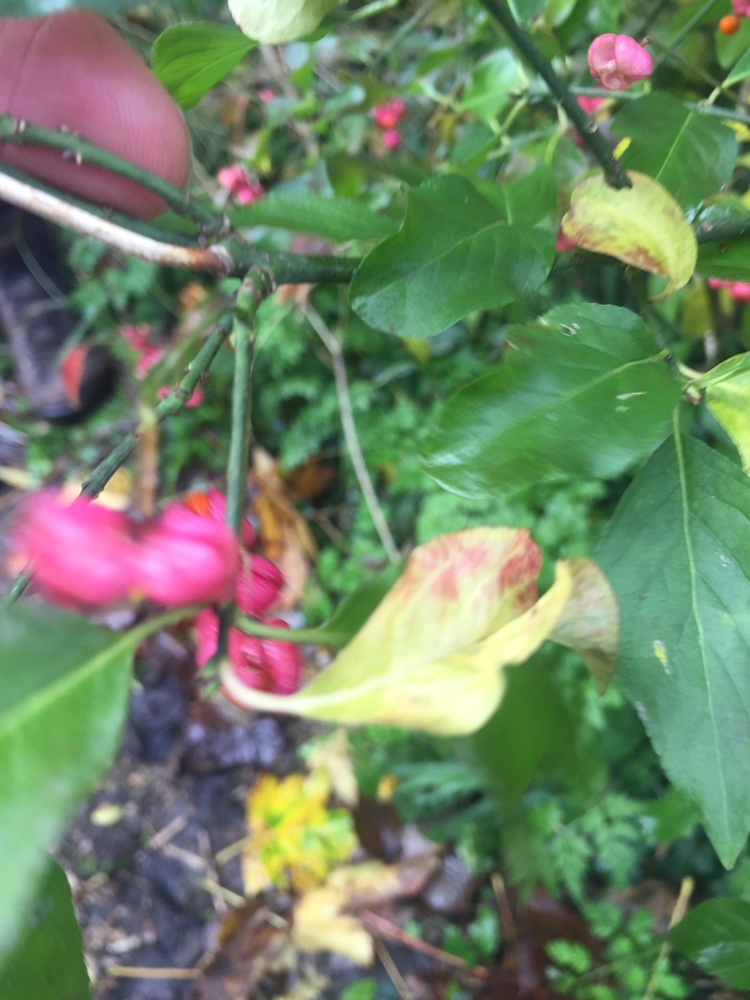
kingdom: Plantae
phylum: Tracheophyta
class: Magnoliopsida
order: Celastrales
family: Celastraceae
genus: Euonymus
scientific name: Euonymus europaeus
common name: Spindle
